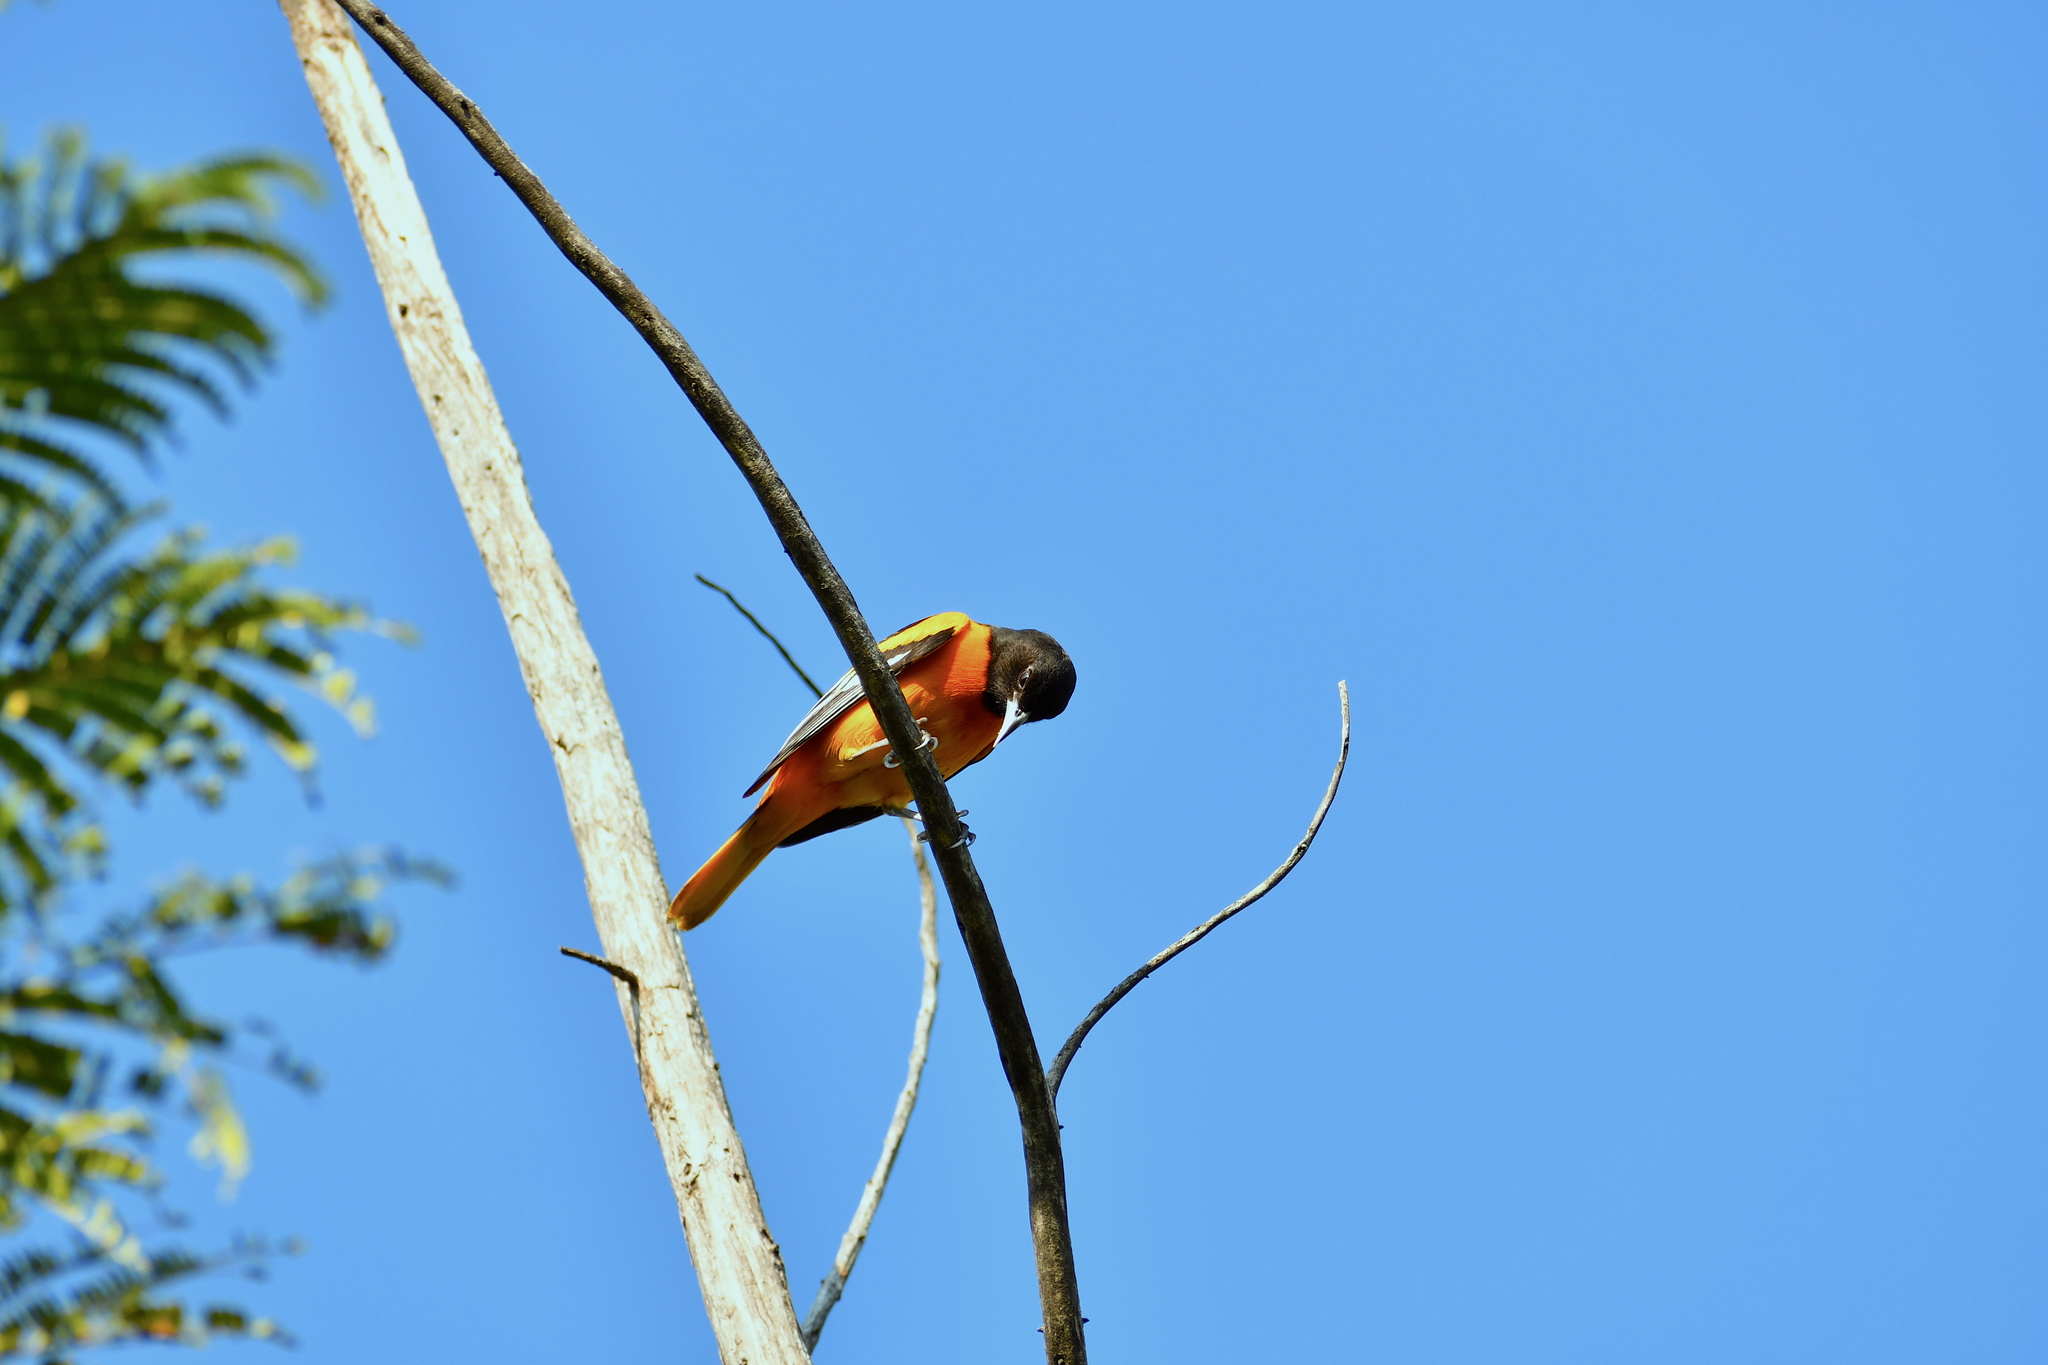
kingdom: Animalia
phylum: Chordata
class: Aves
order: Passeriformes
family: Icteridae
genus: Icterus
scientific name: Icterus galbula
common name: Baltimore oriole
